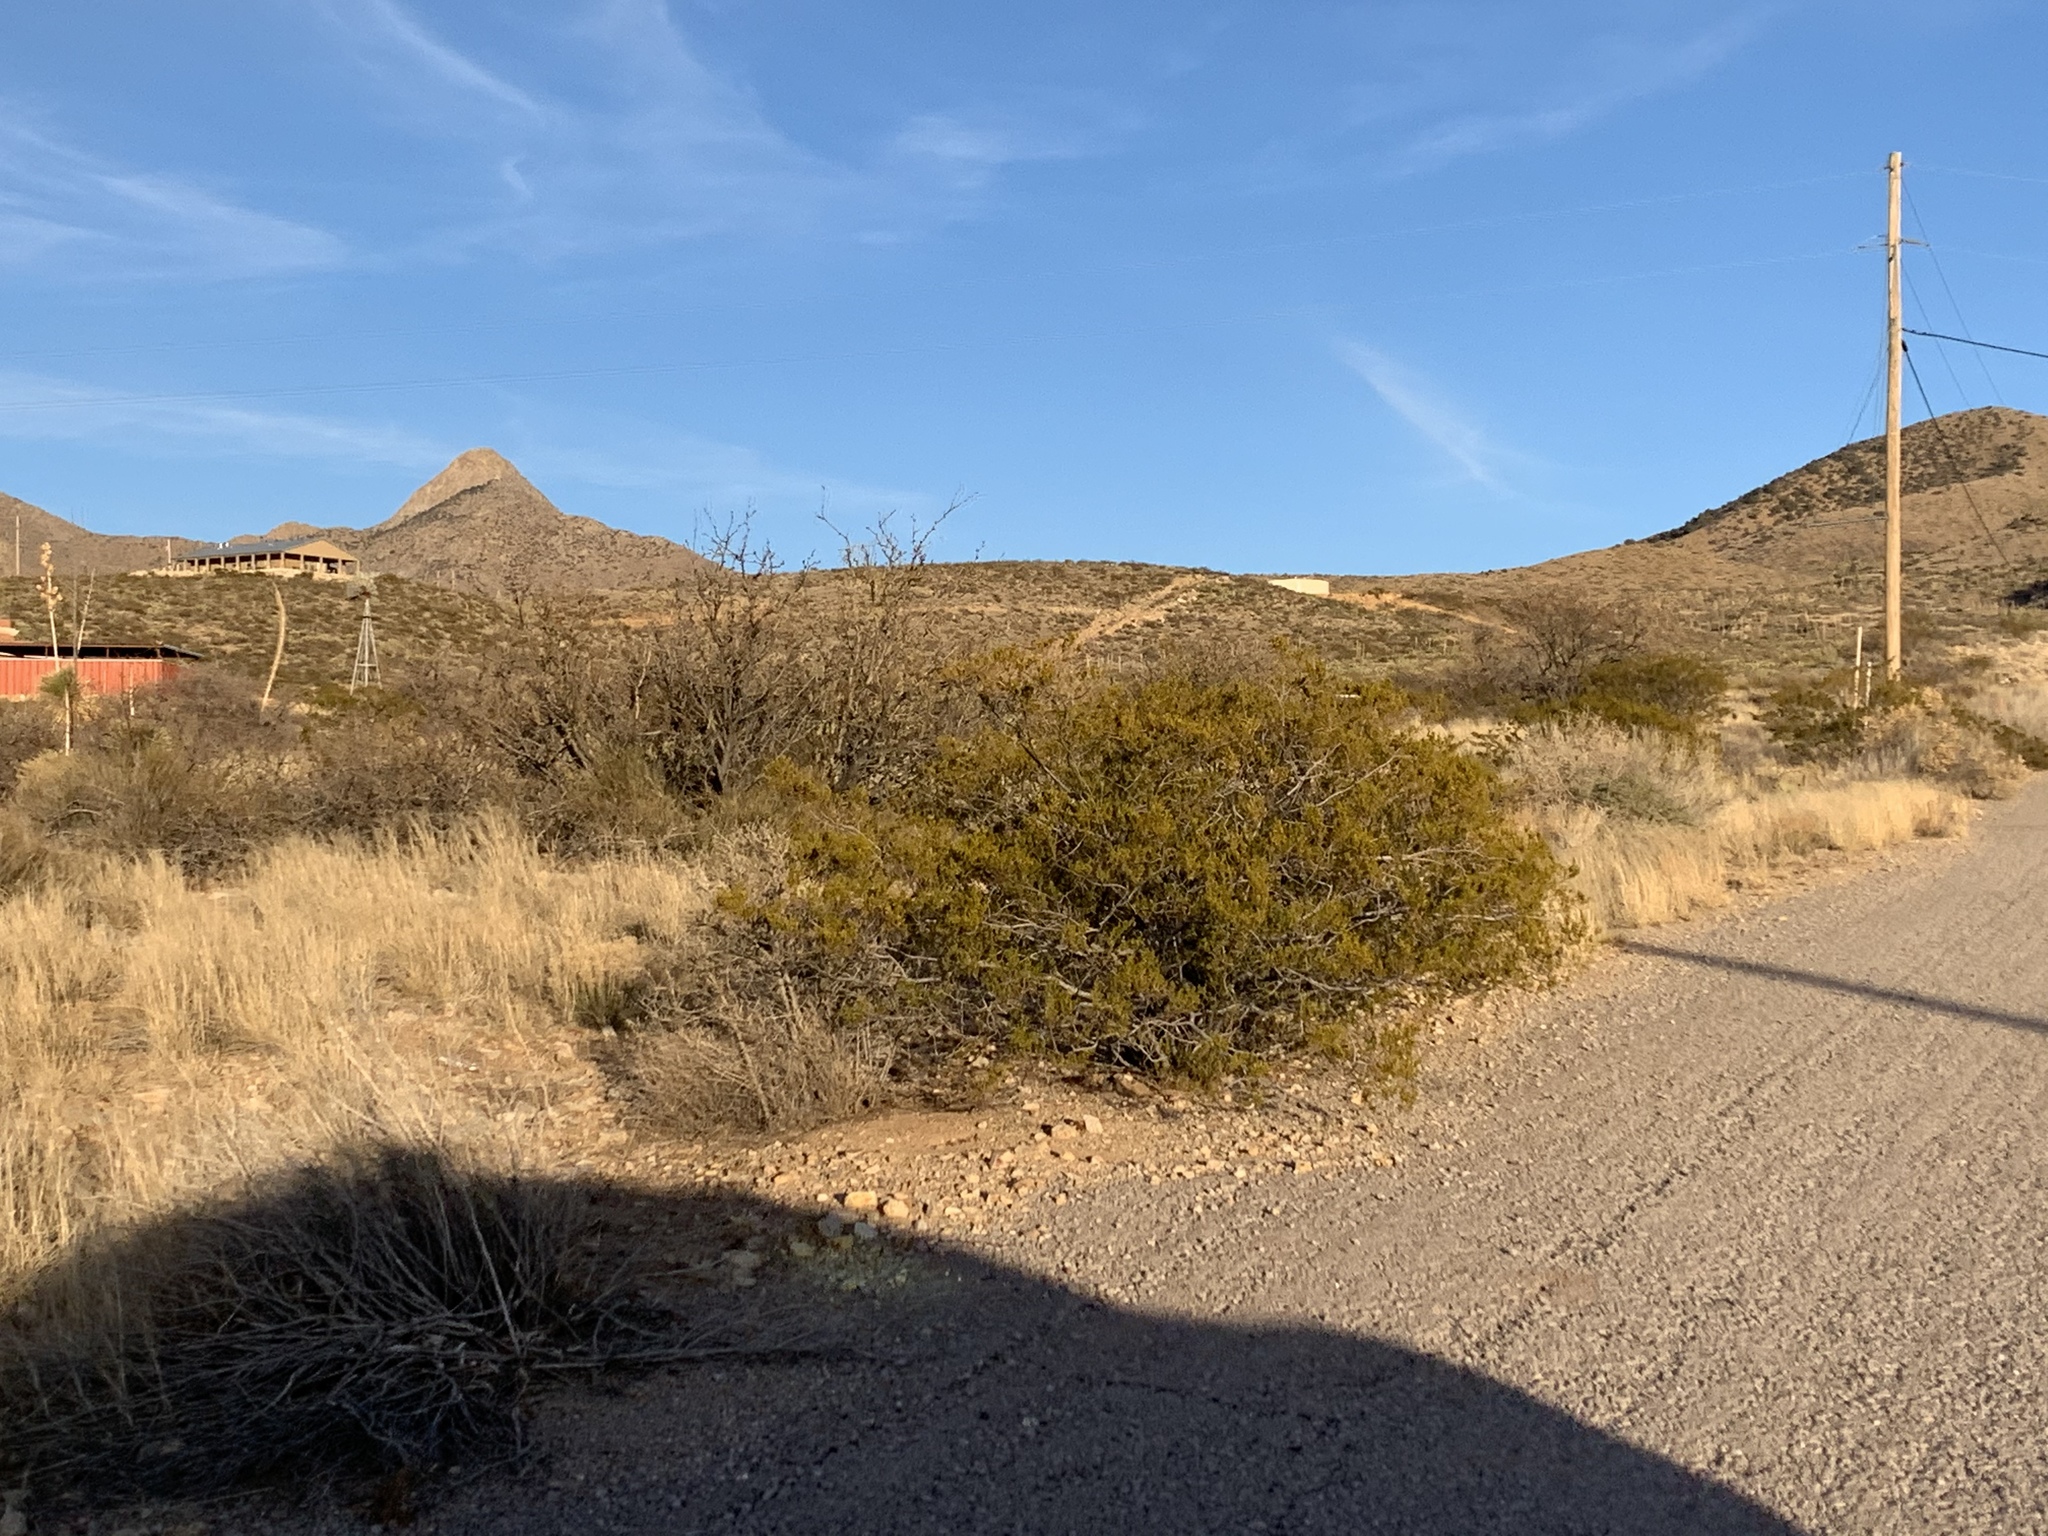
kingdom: Plantae
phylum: Tracheophyta
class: Magnoliopsida
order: Zygophyllales
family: Zygophyllaceae
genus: Larrea
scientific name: Larrea tridentata
